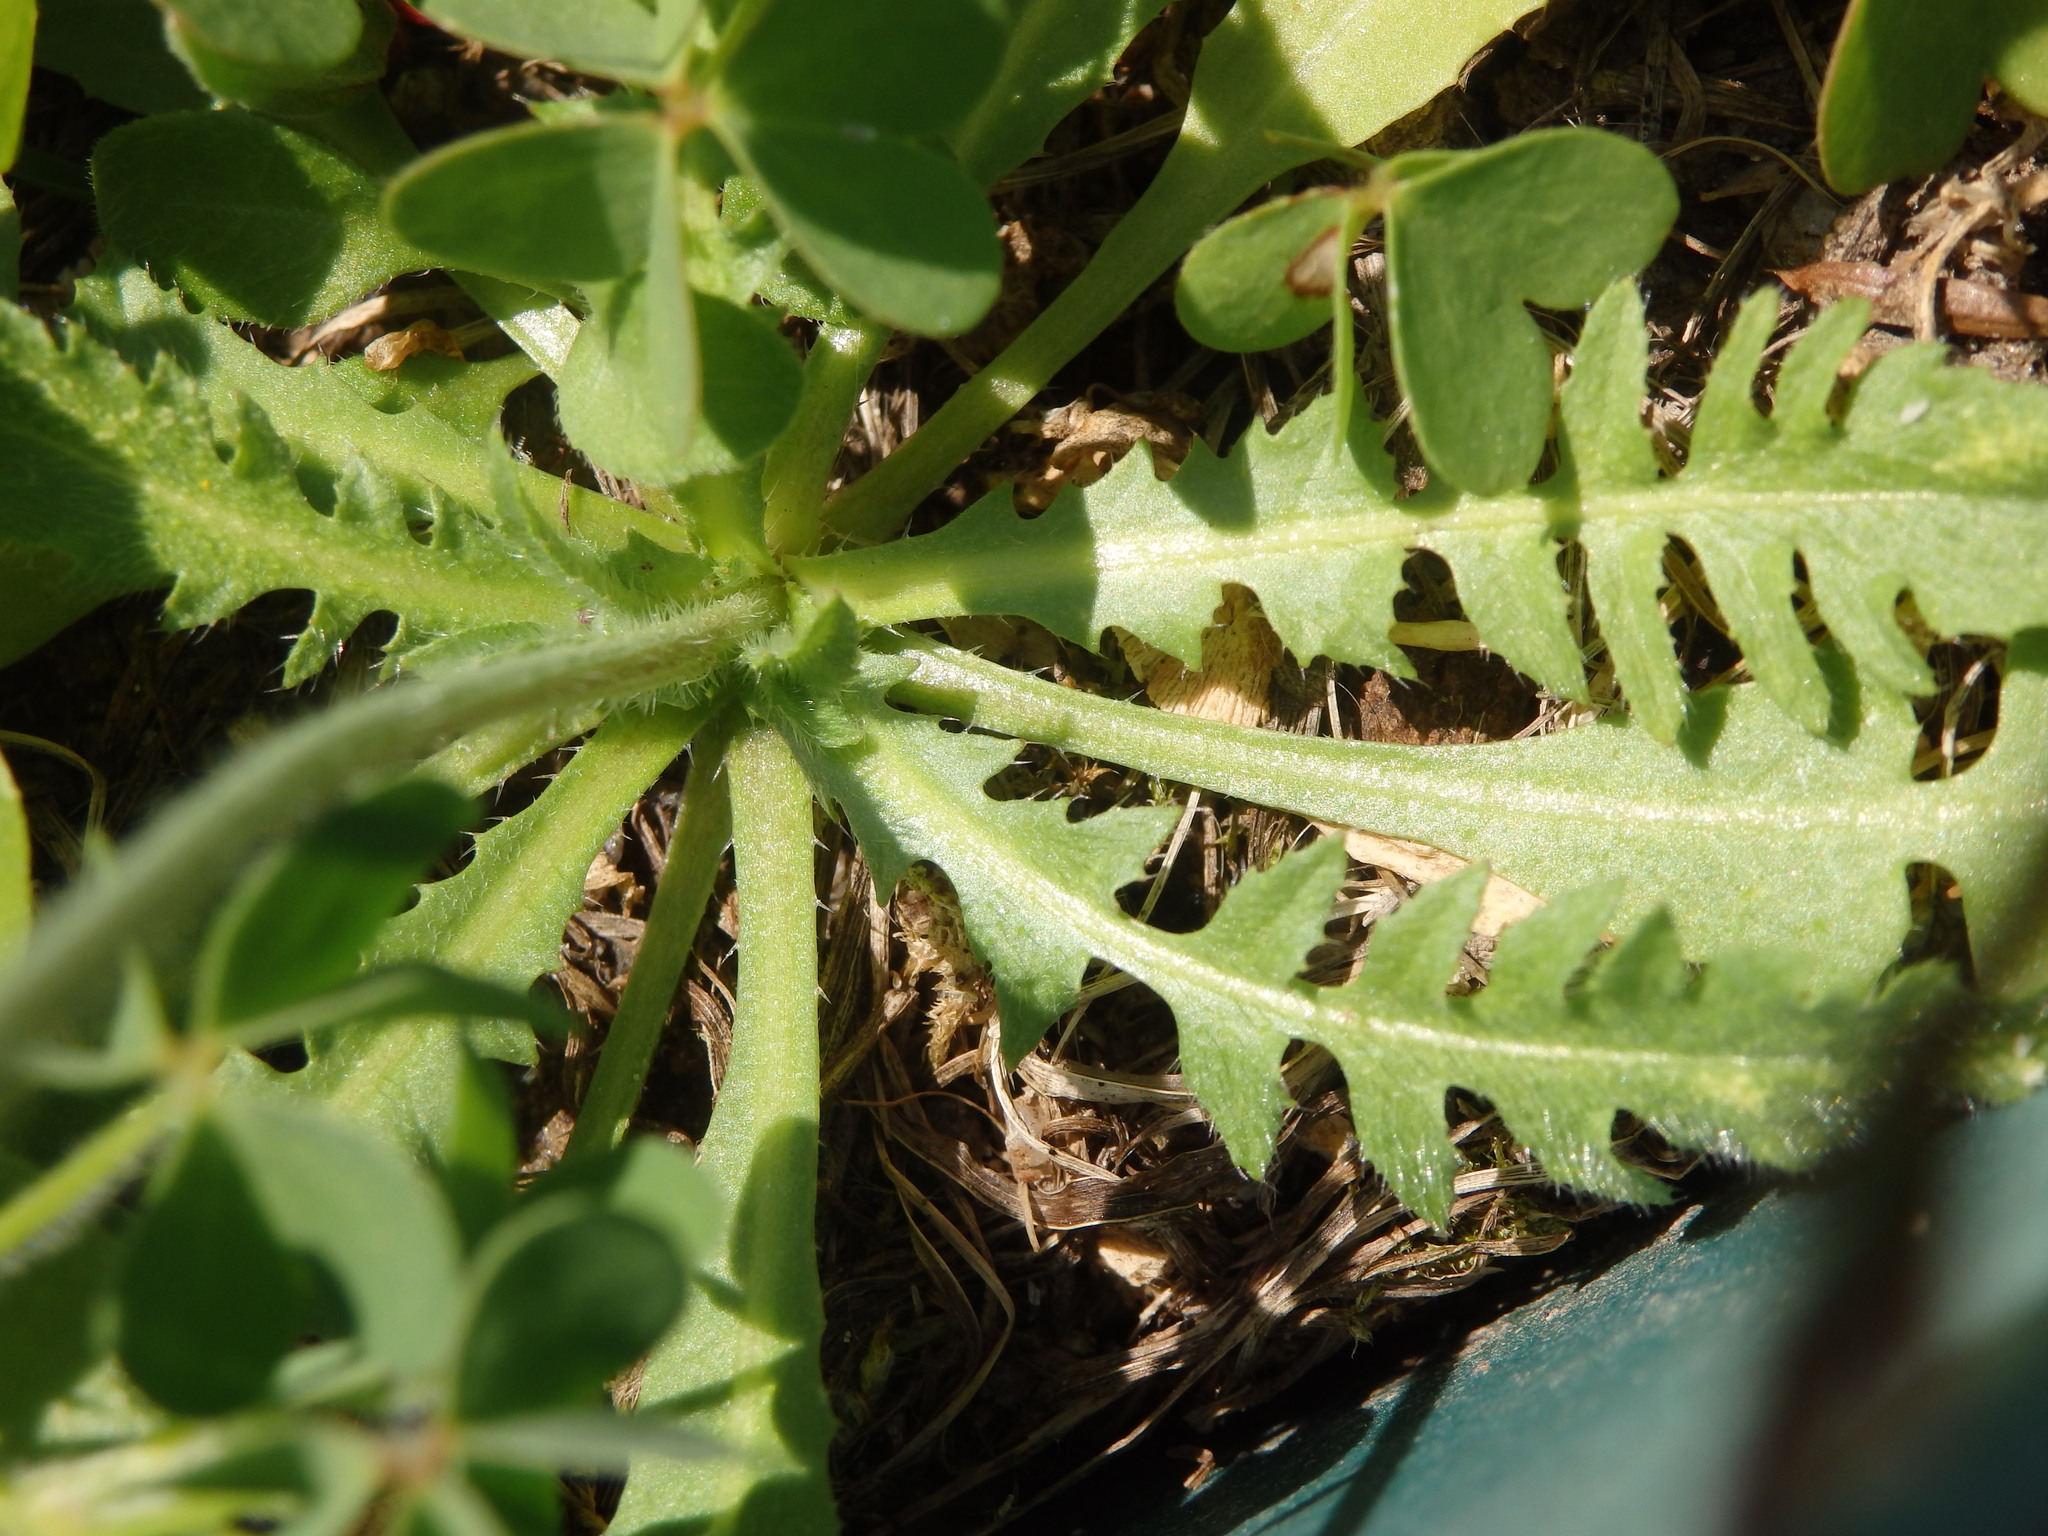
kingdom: Plantae
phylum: Tracheophyta
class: Magnoliopsida
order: Brassicales
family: Brassicaceae
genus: Capsella
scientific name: Capsella bursa-pastoris
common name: Shepherd's purse
